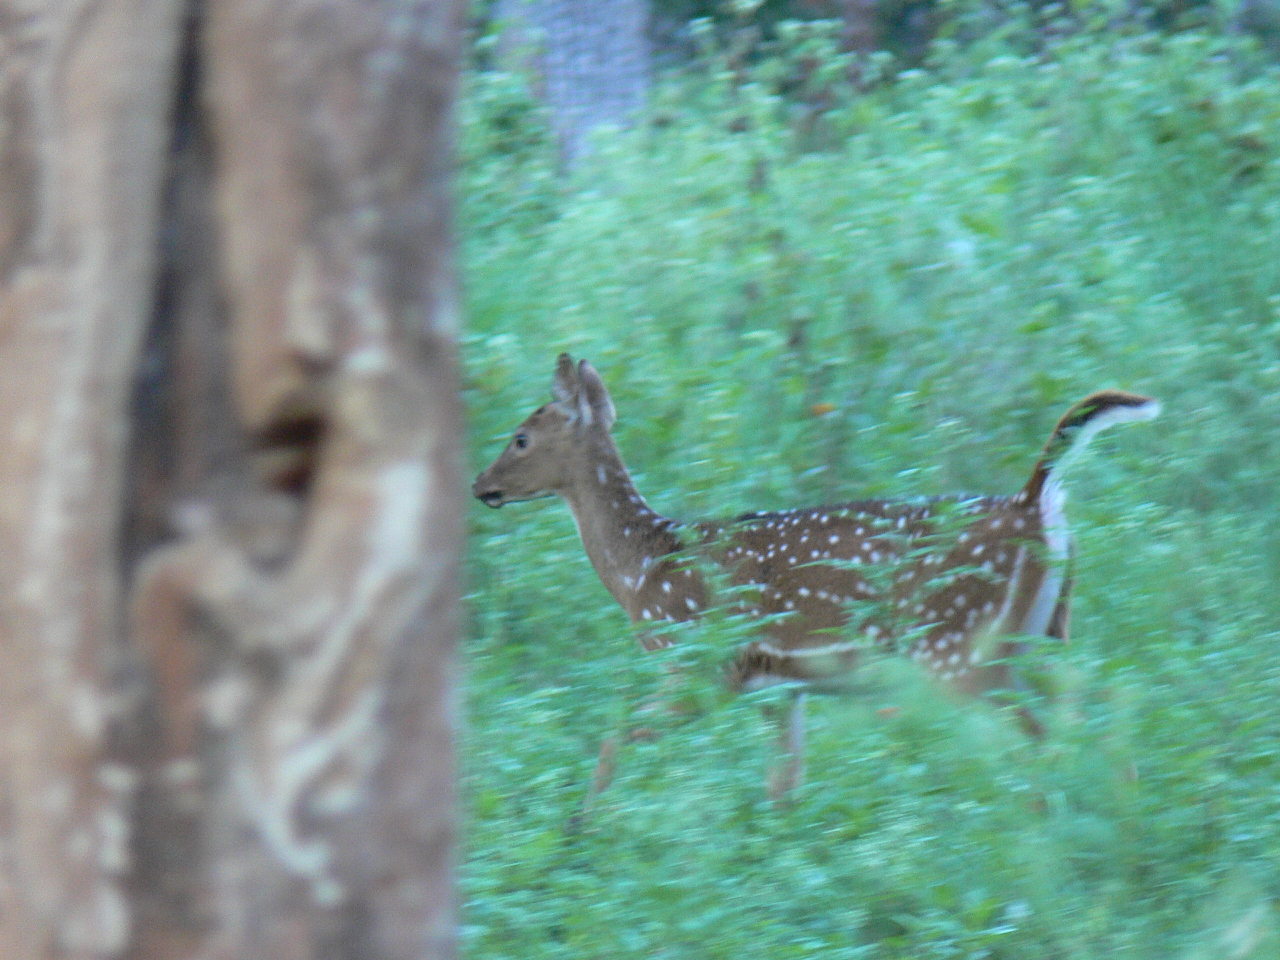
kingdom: Animalia
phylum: Chordata
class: Mammalia
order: Artiodactyla
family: Cervidae
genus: Axis
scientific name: Axis axis
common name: Chital
